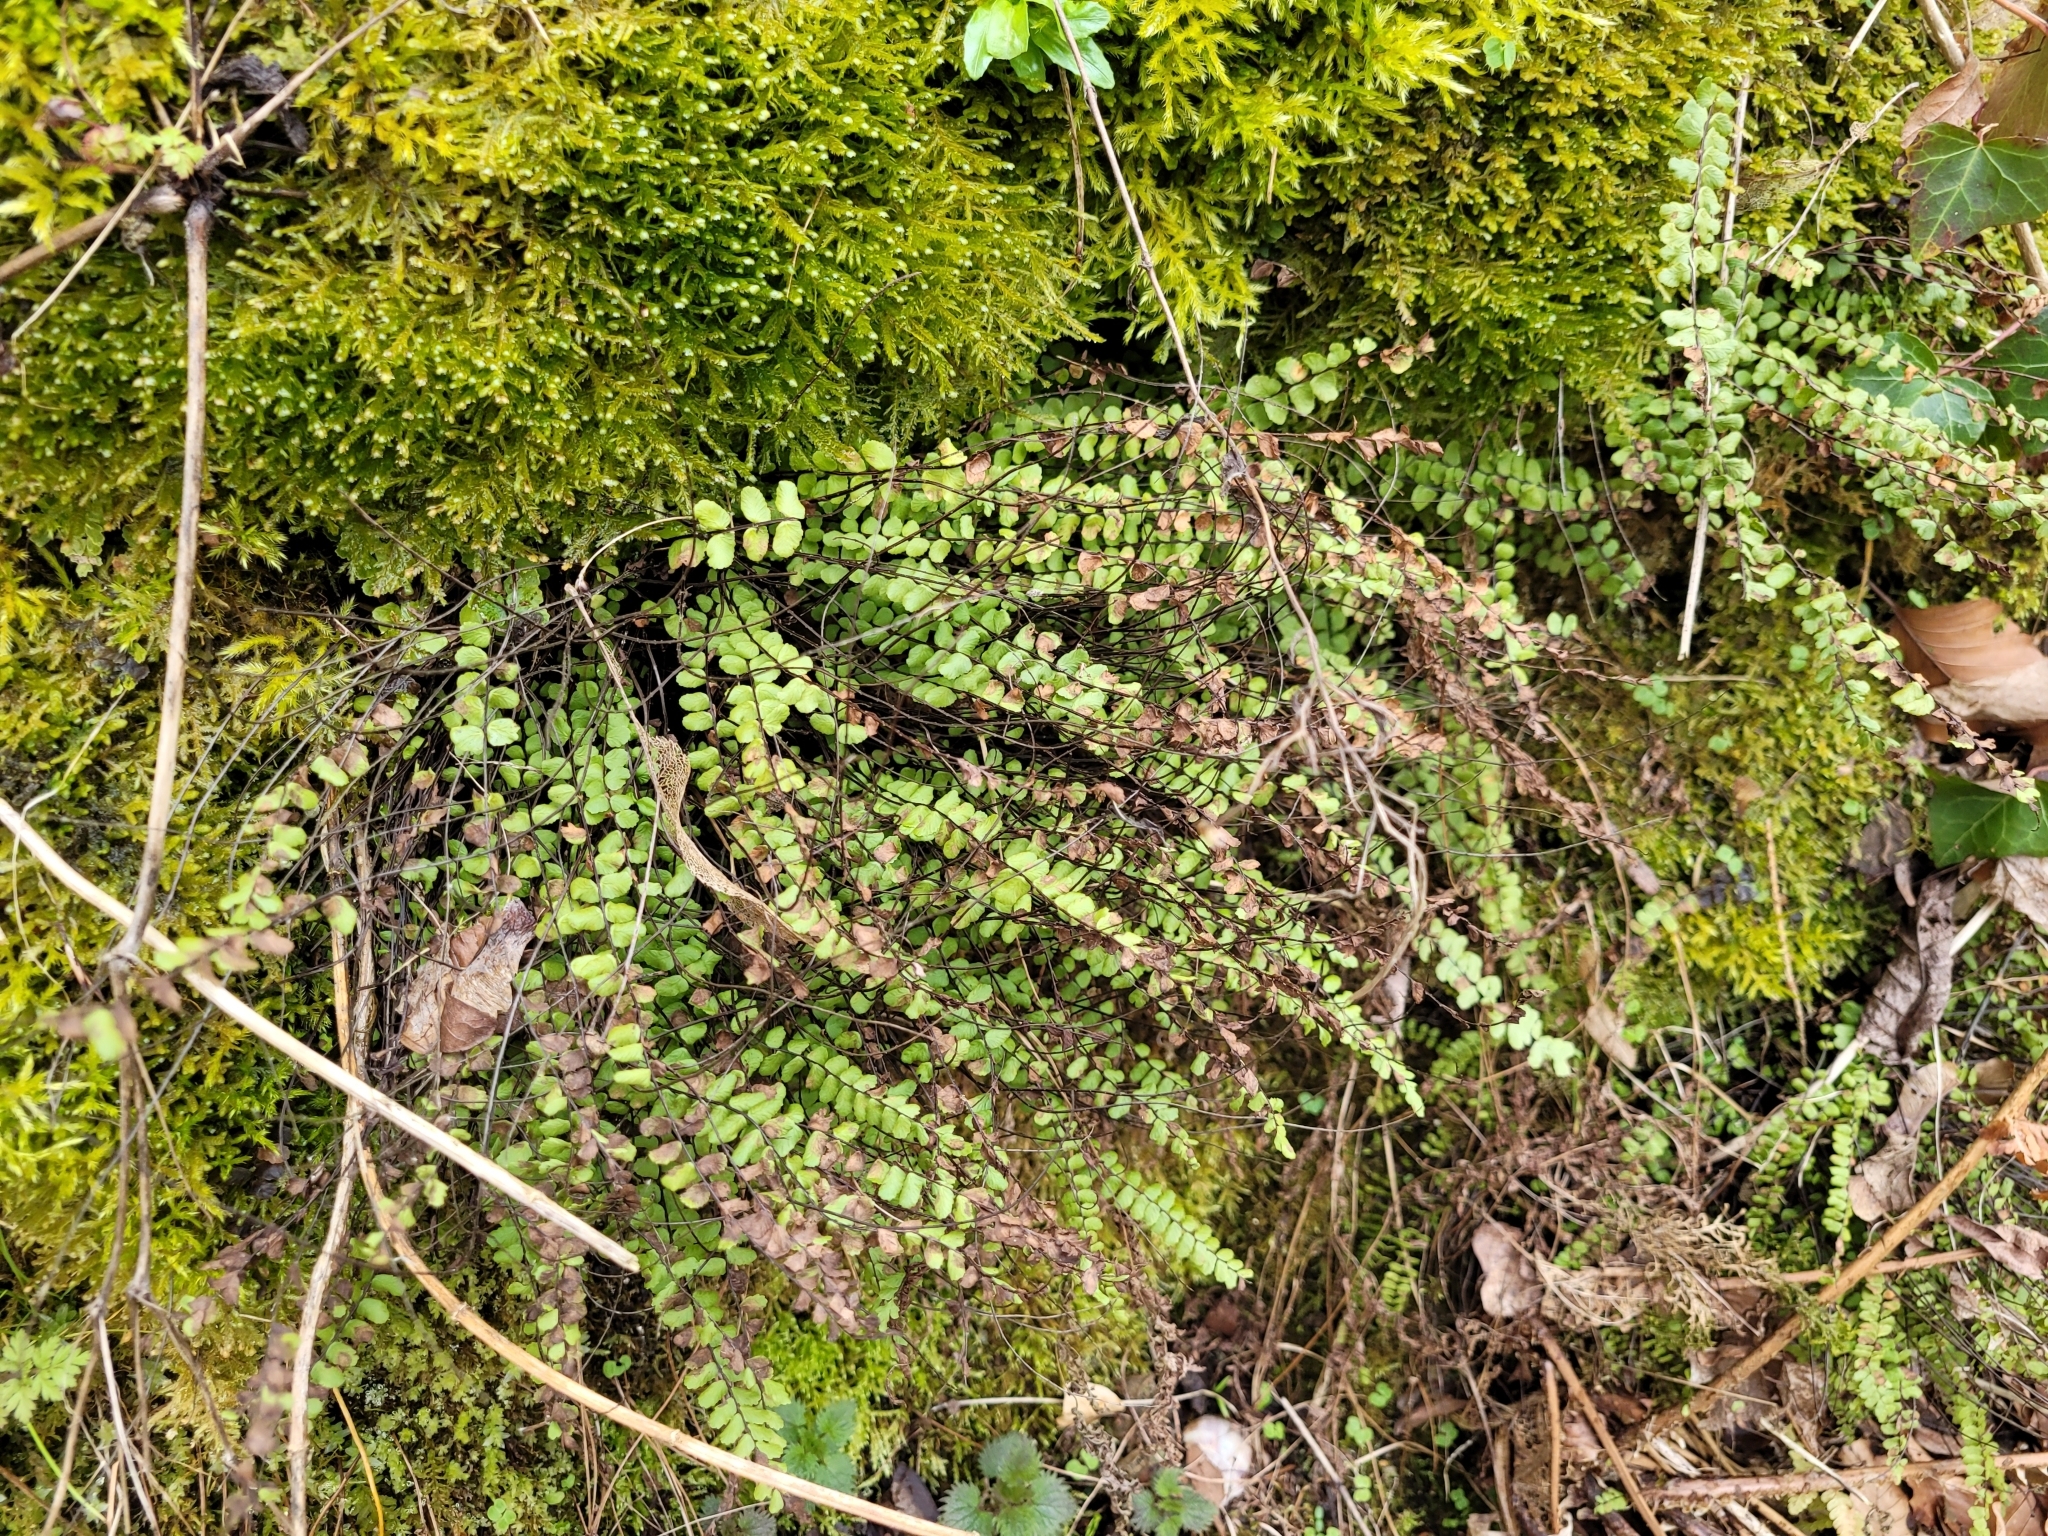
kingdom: Plantae
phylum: Tracheophyta
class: Polypodiopsida
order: Polypodiales
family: Aspleniaceae
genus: Asplenium
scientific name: Asplenium trichomanes
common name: Maidenhair spleenwort
